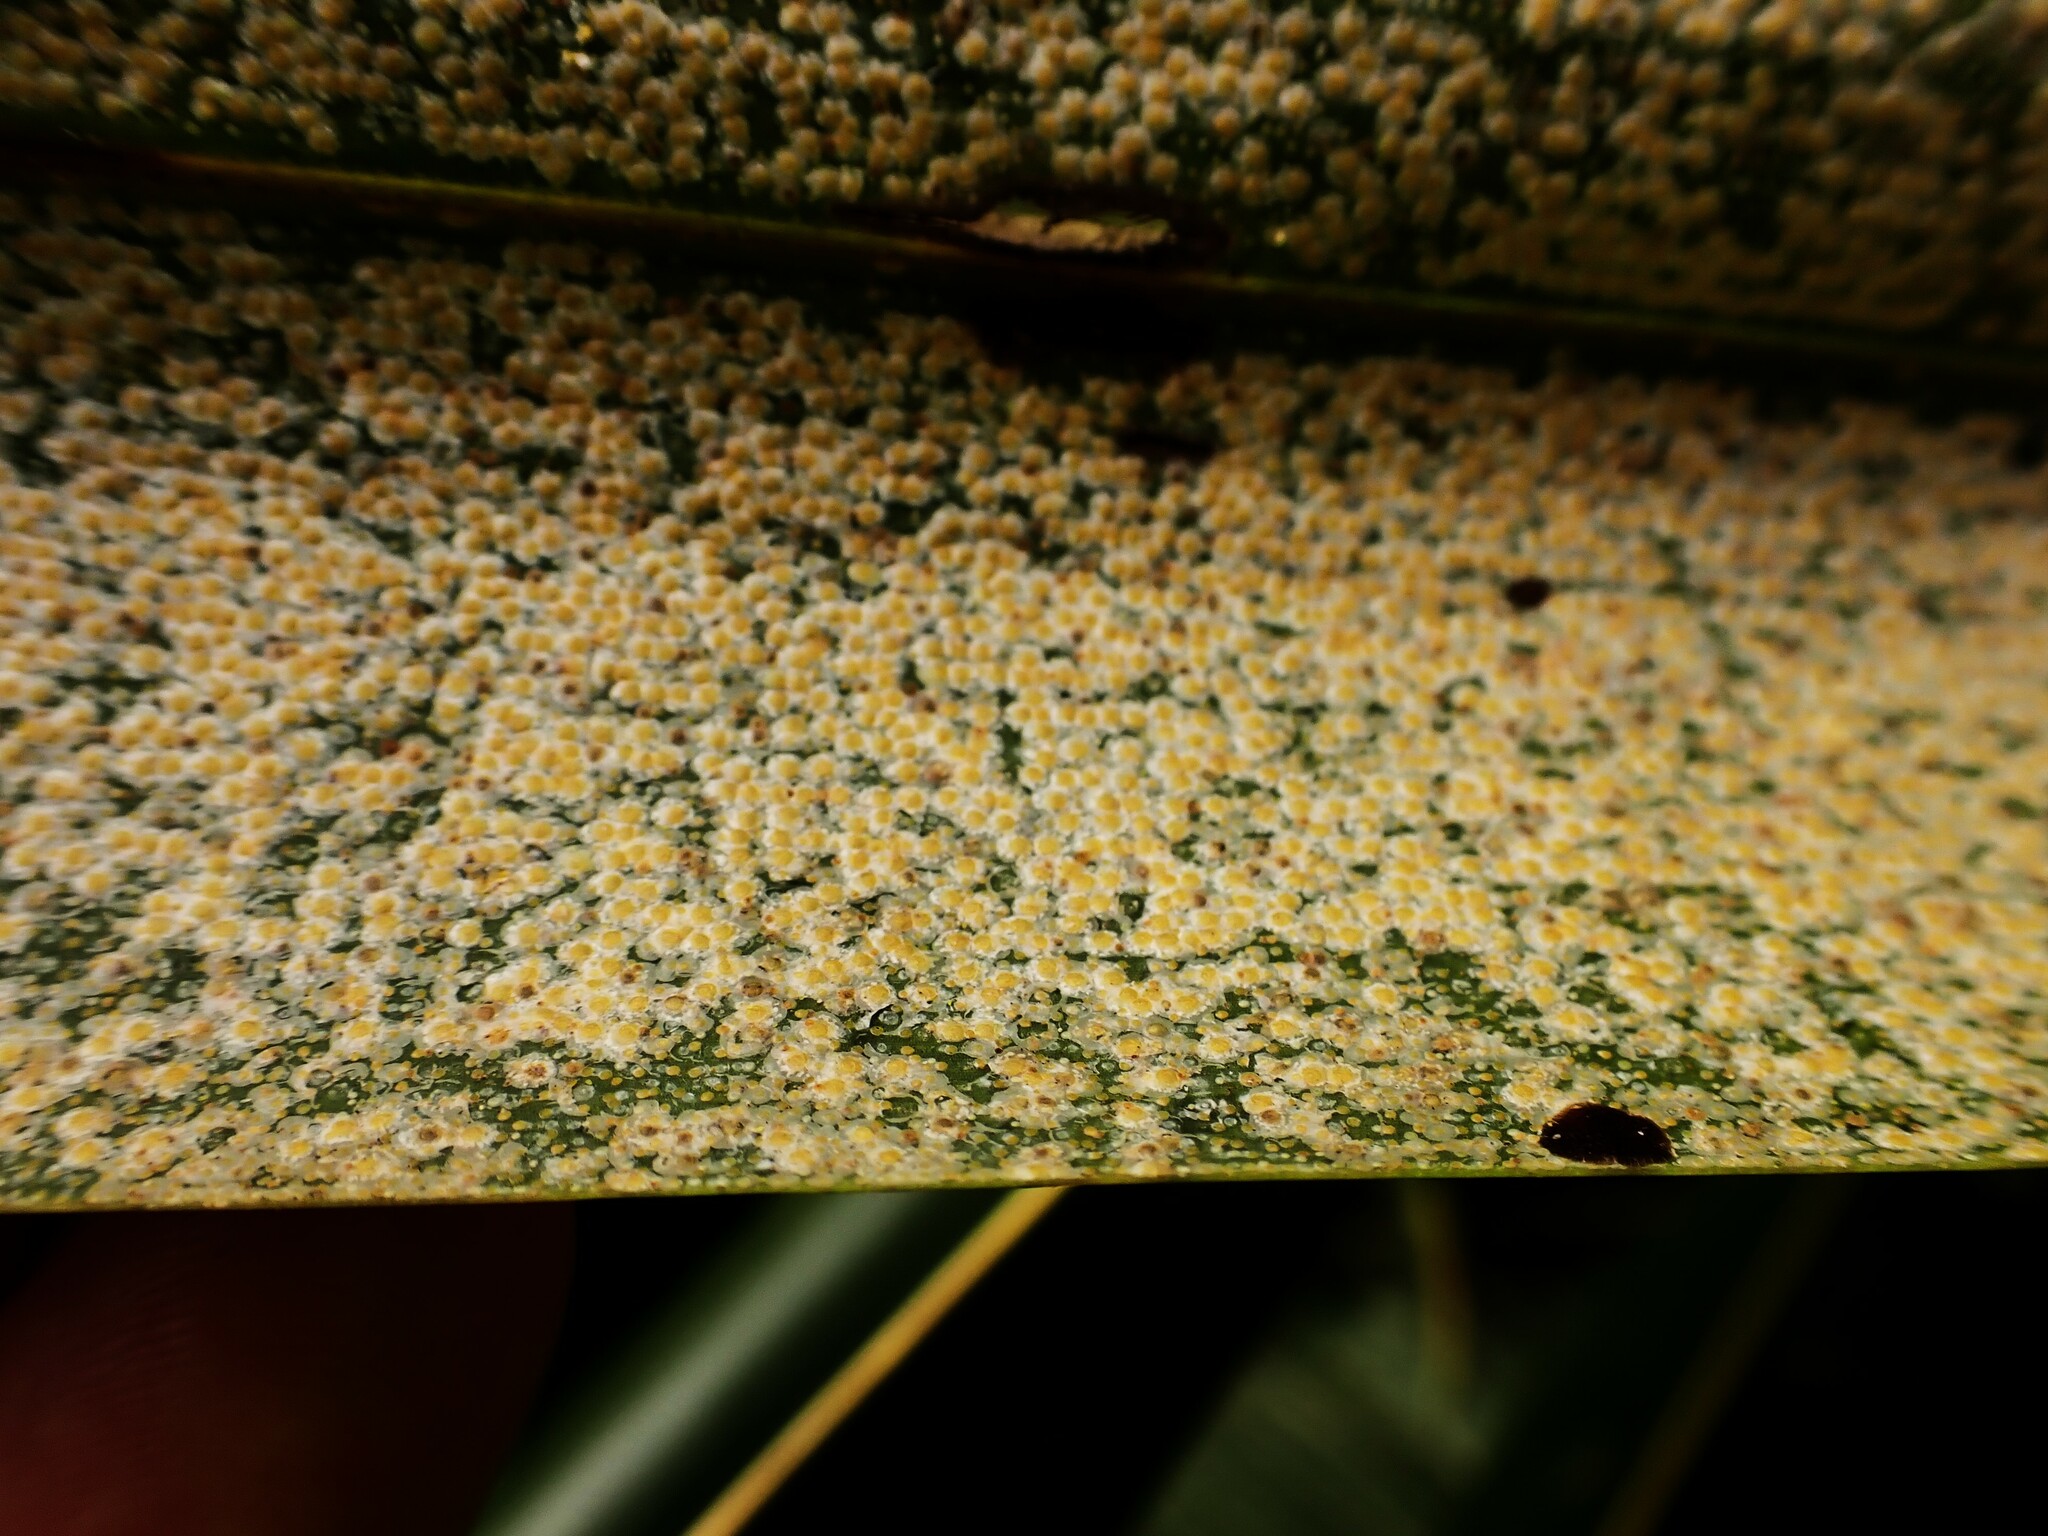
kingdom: Animalia
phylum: Arthropoda
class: Insecta
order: Hemiptera
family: Diaspididae
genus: Aspidiotus
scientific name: Aspidiotus destructor
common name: Coconut scale
